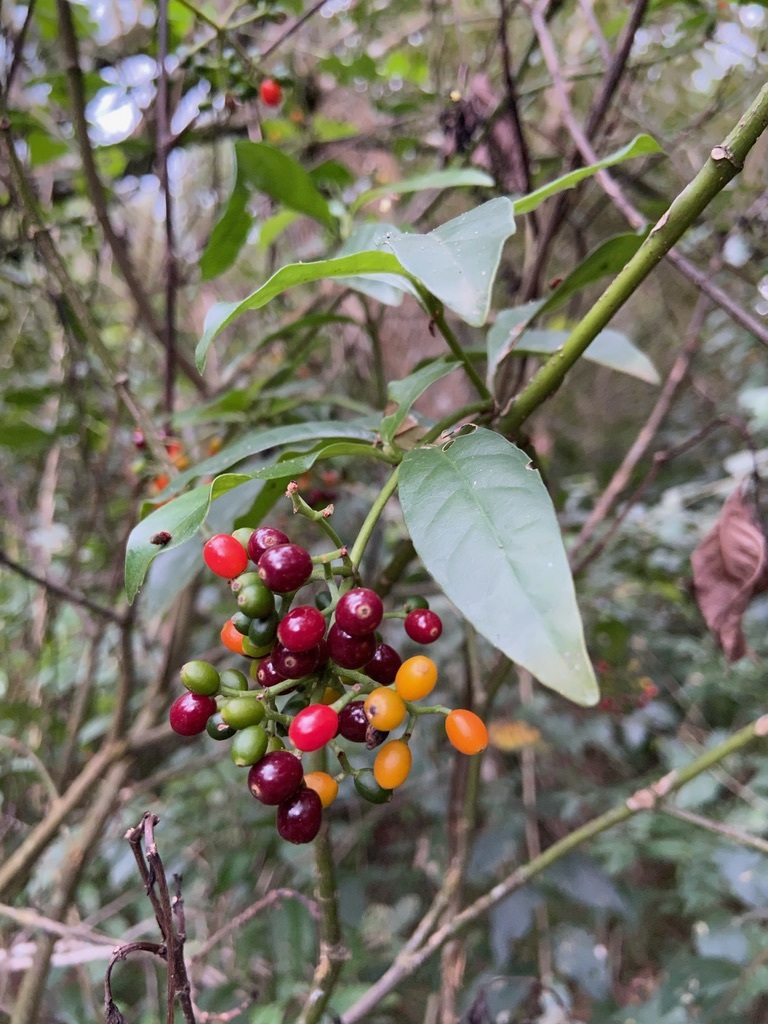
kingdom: Plantae
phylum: Tracheophyta
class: Magnoliopsida
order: Gentianales
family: Rubiaceae
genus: Psychotria
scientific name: Psychotria carthagenensis
